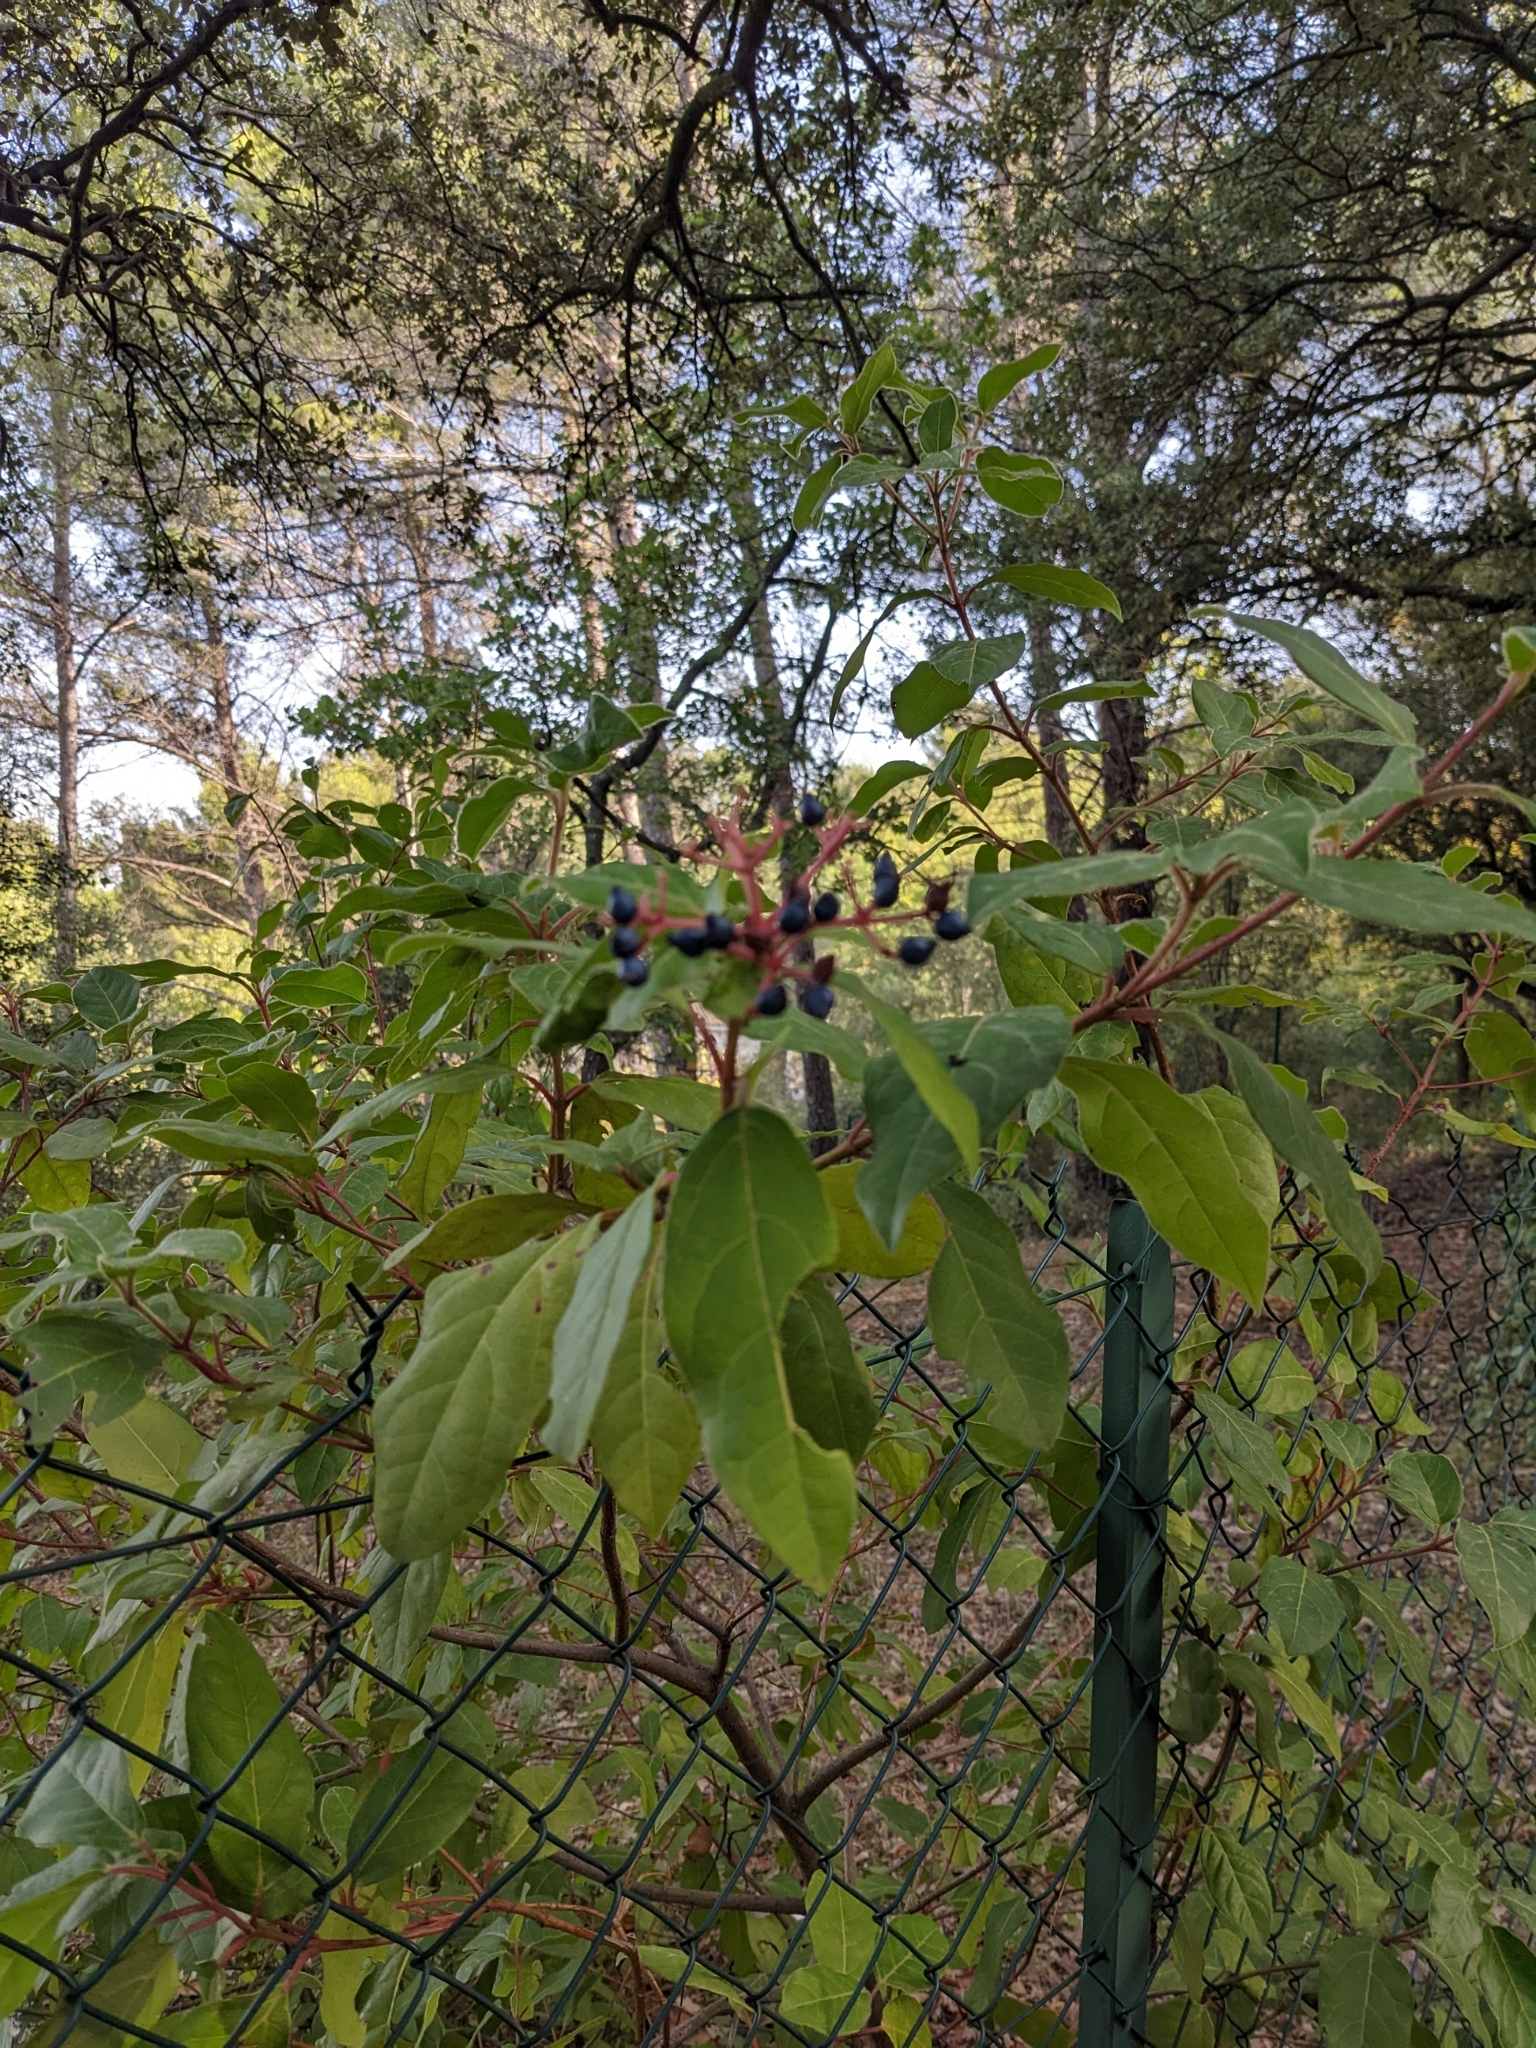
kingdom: Plantae
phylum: Tracheophyta
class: Magnoliopsida
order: Dipsacales
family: Viburnaceae
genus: Viburnum
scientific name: Viburnum tinus
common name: Laurustinus
